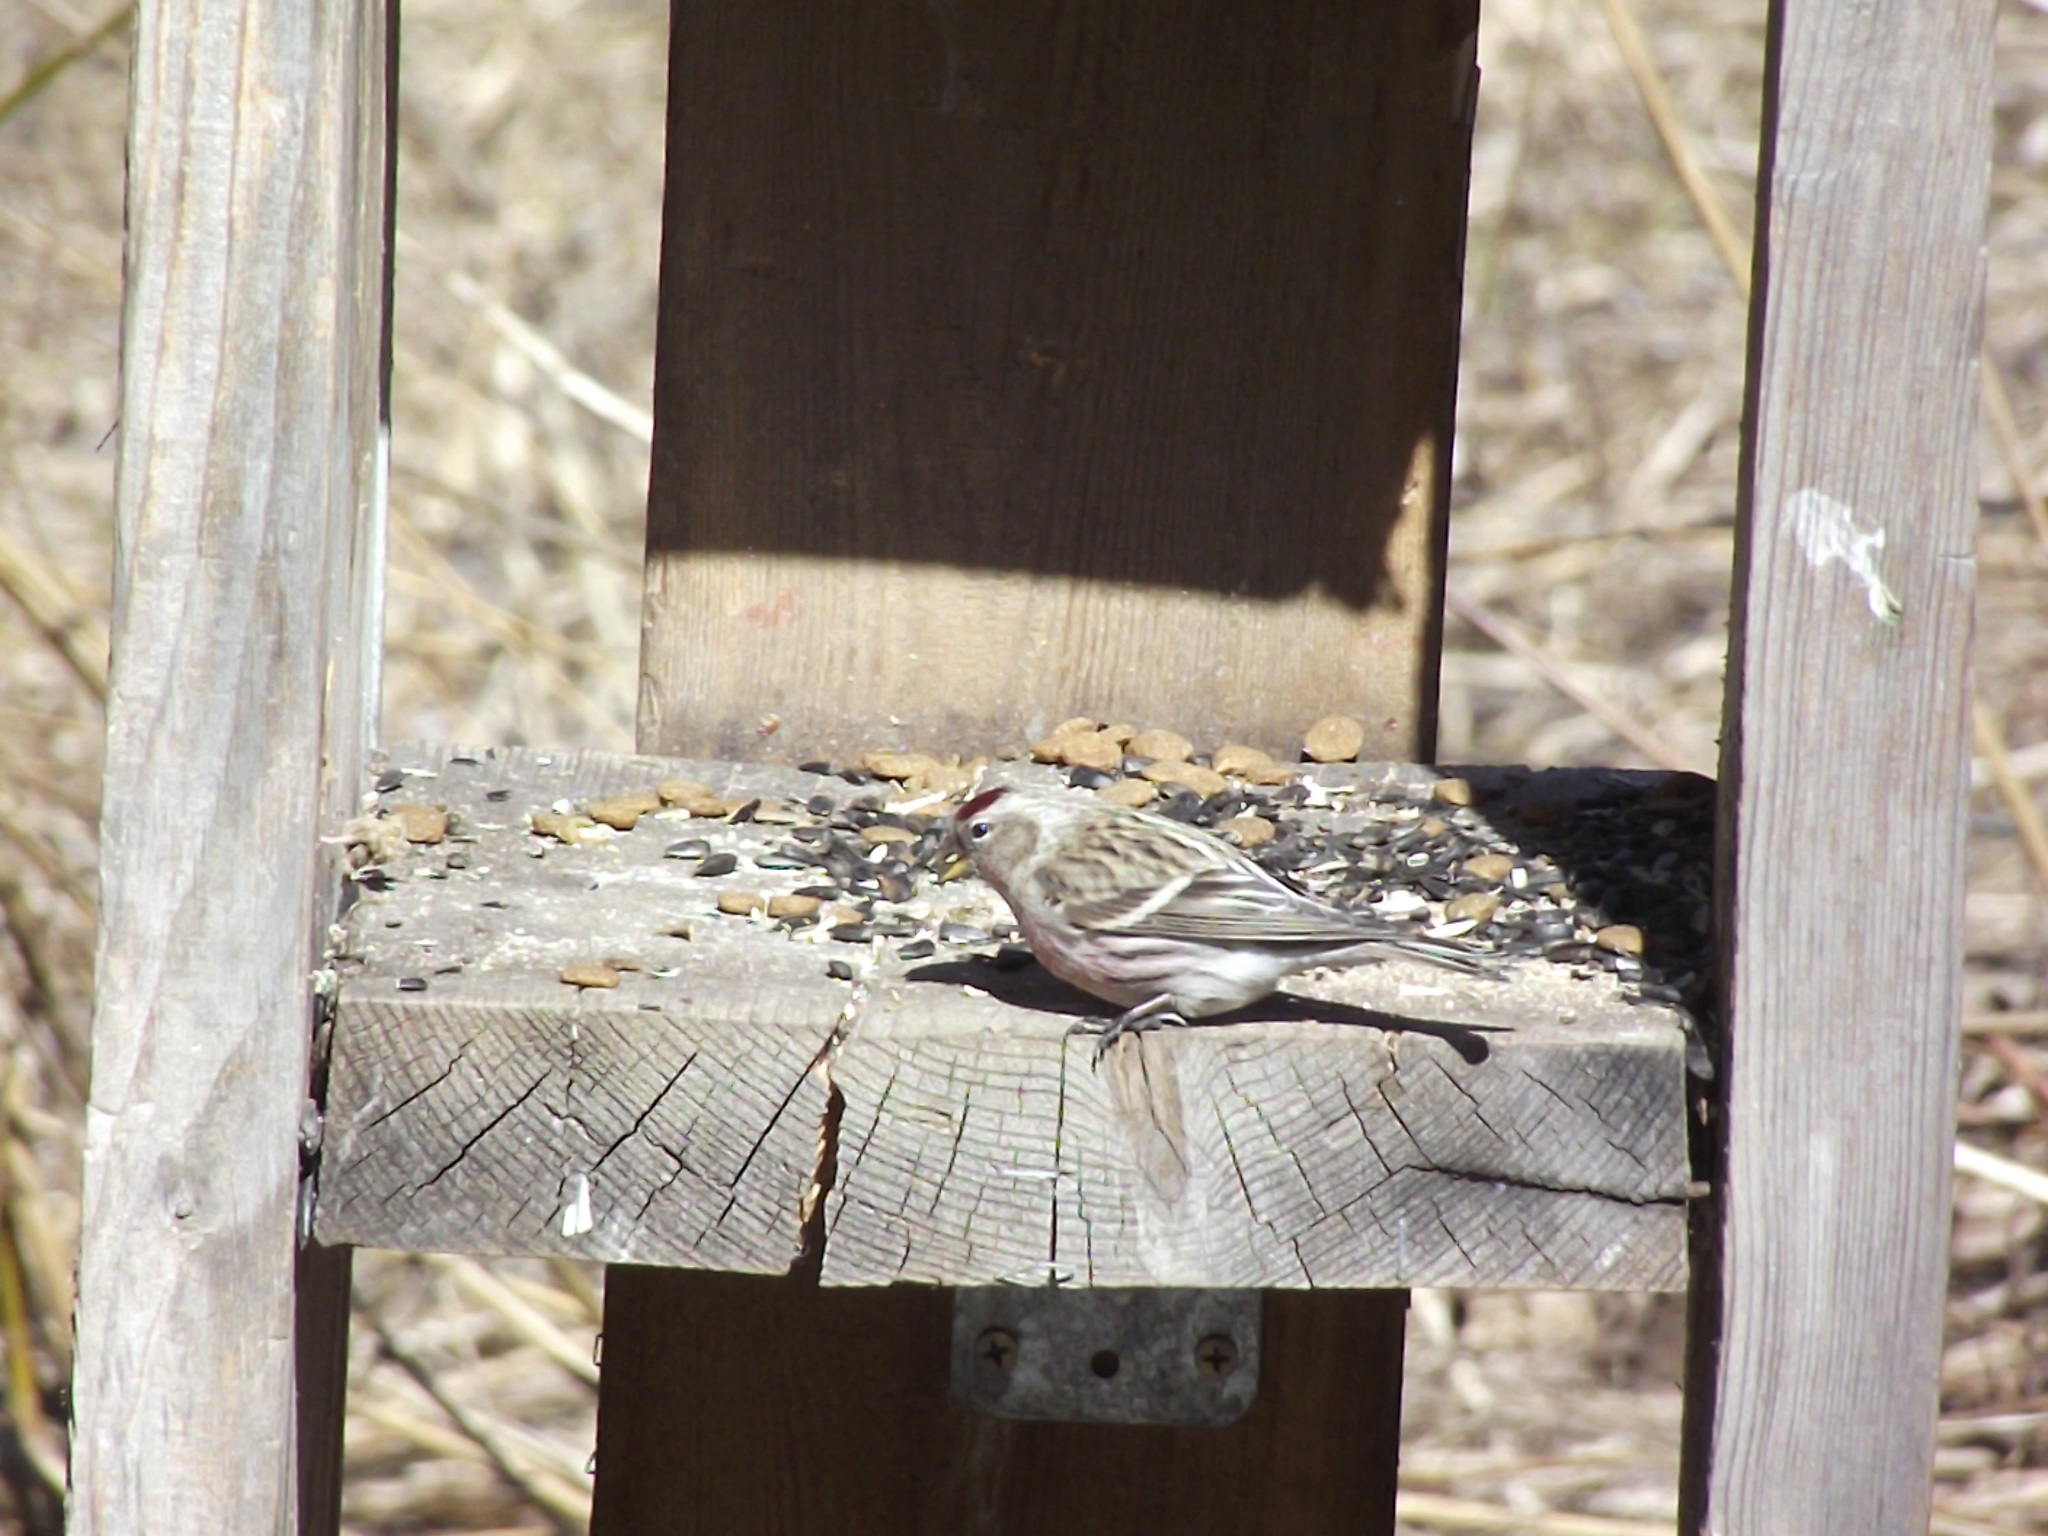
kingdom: Animalia
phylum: Chordata
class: Aves
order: Passeriformes
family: Fringillidae
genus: Acanthis
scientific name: Acanthis flammea
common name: Common redpoll
